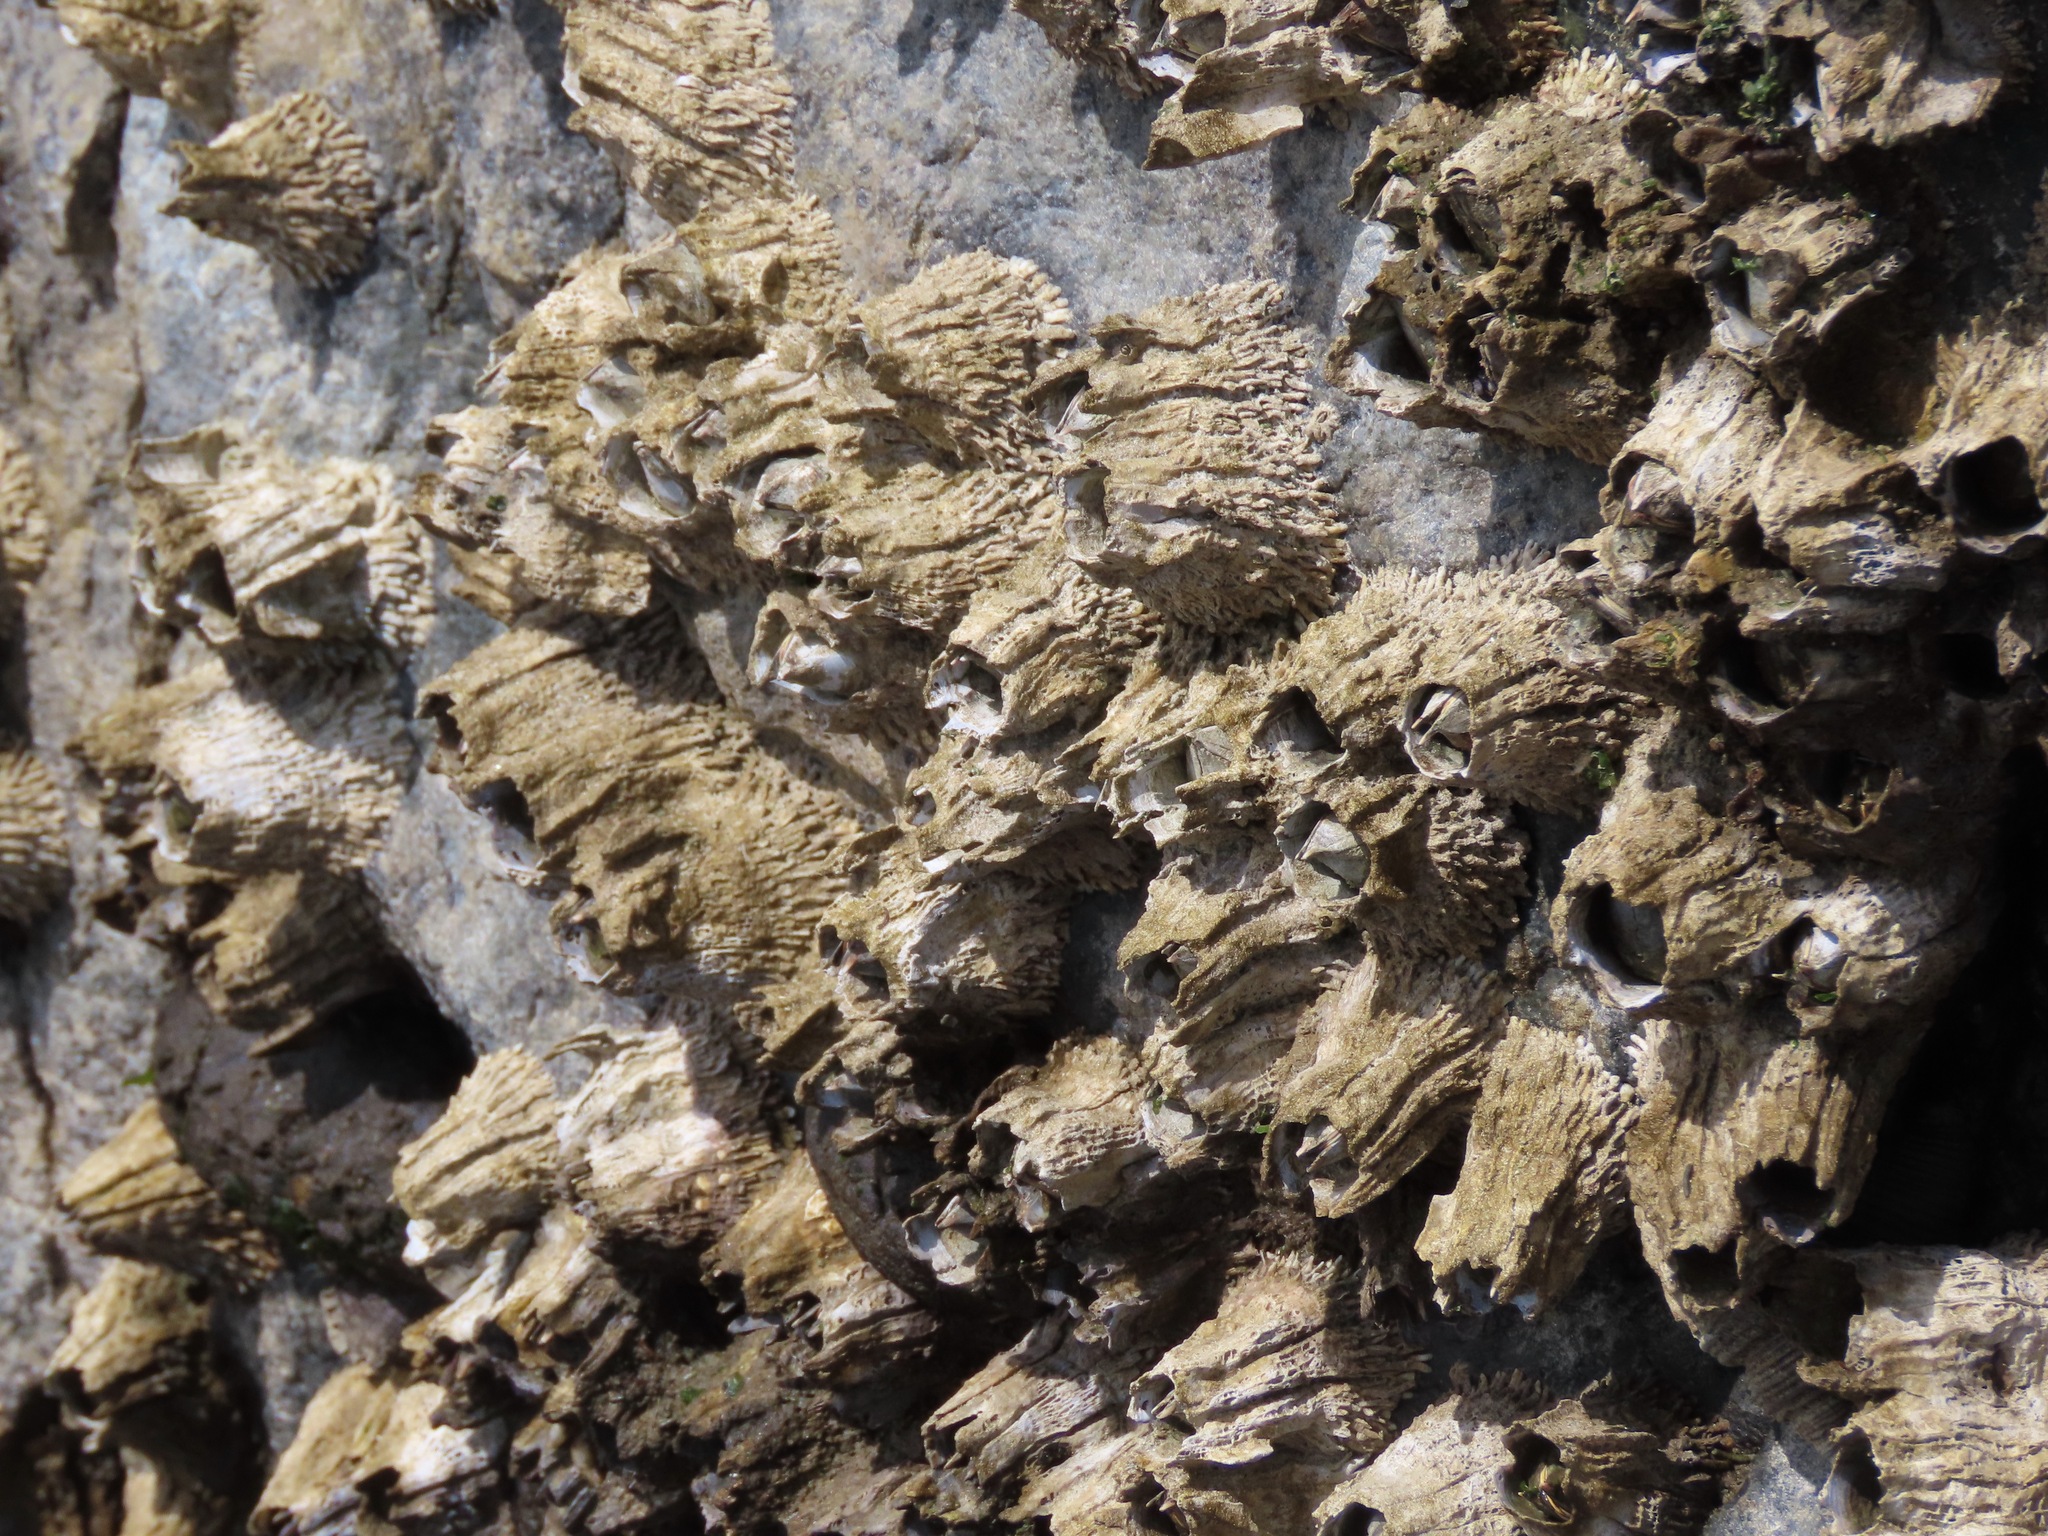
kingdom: Animalia
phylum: Arthropoda
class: Maxillopoda
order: Sessilia
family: Archaeobalanidae
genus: Semibalanus
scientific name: Semibalanus cariosus
